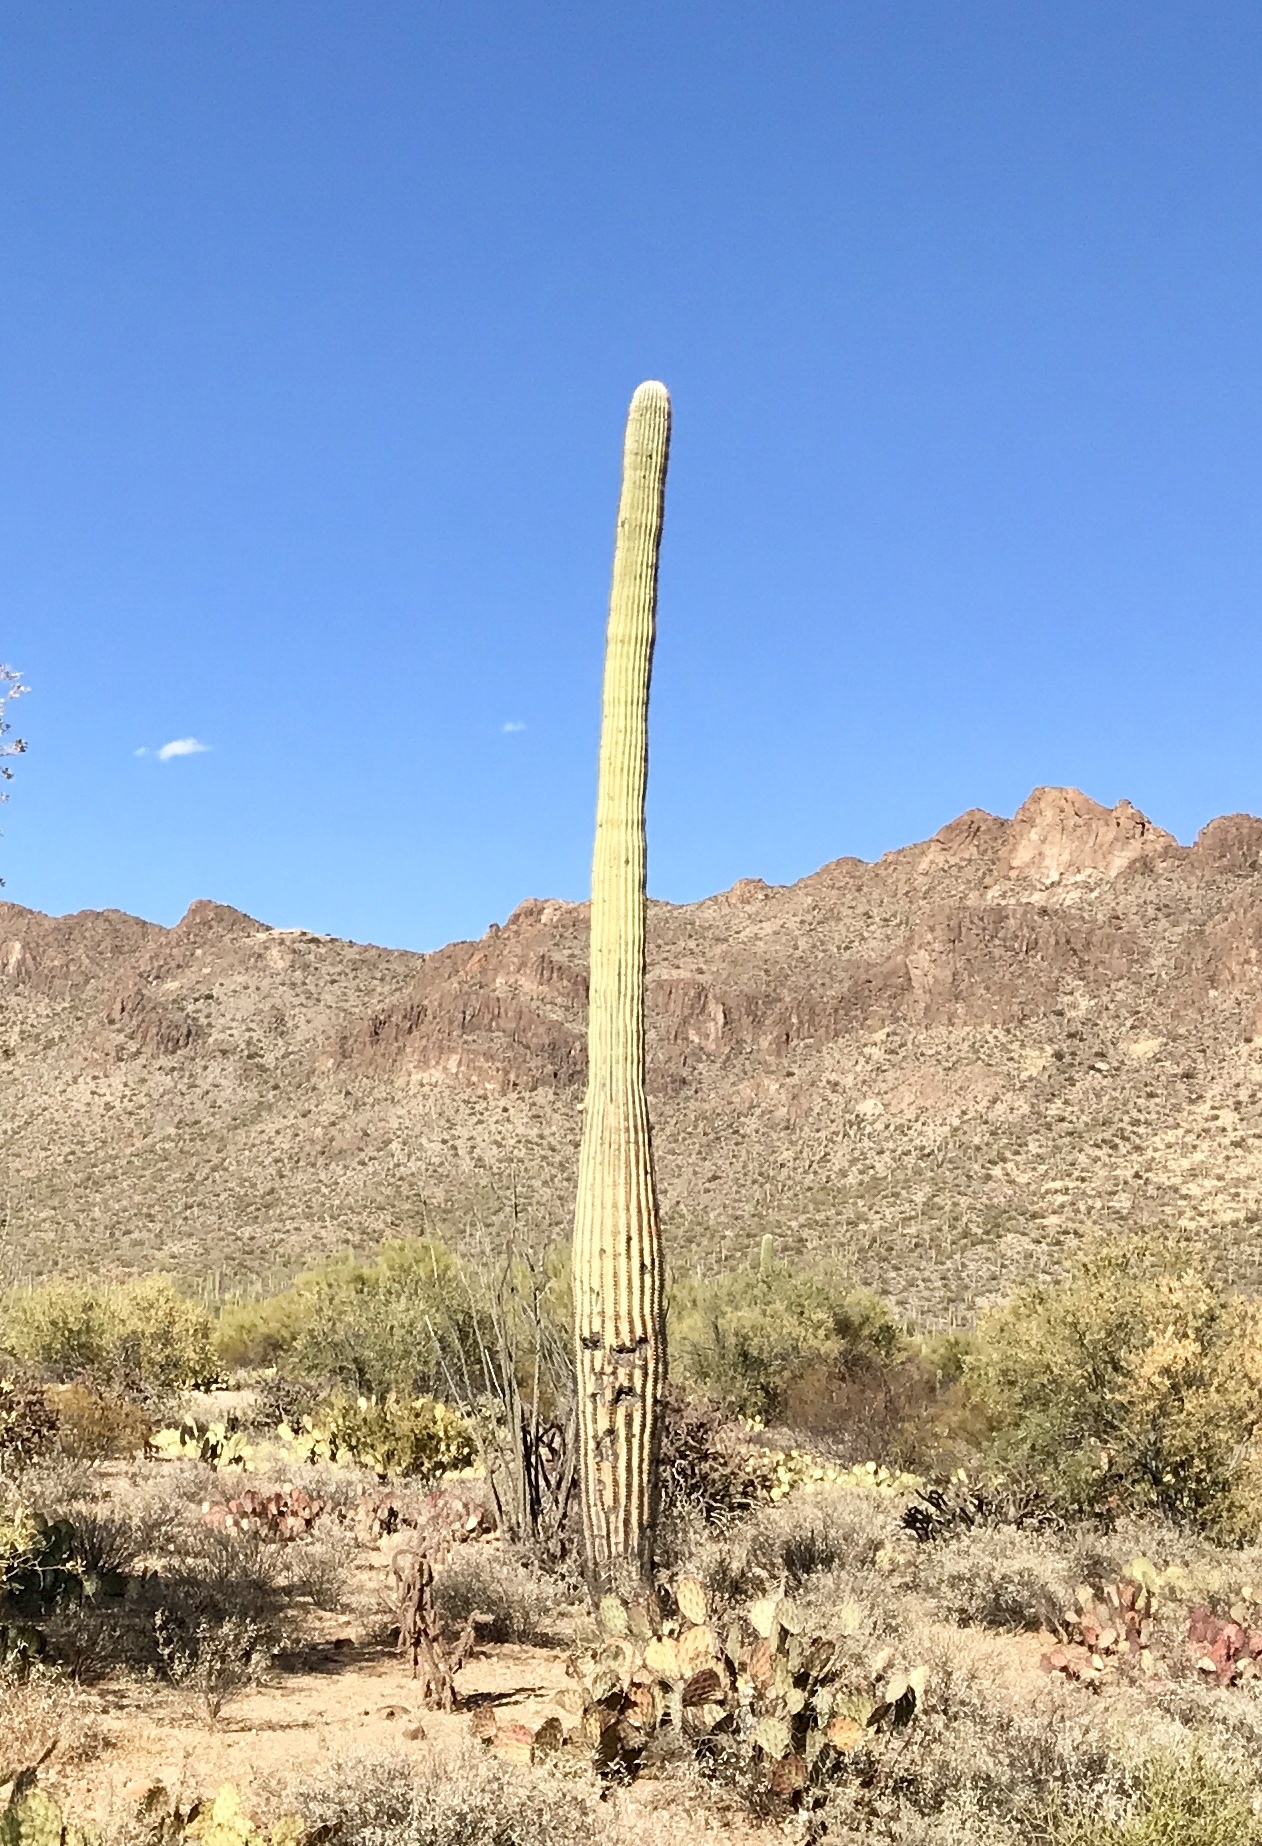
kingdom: Plantae
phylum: Tracheophyta
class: Magnoliopsida
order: Caryophyllales
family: Cactaceae
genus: Carnegiea
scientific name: Carnegiea gigantea
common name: Saguaro
